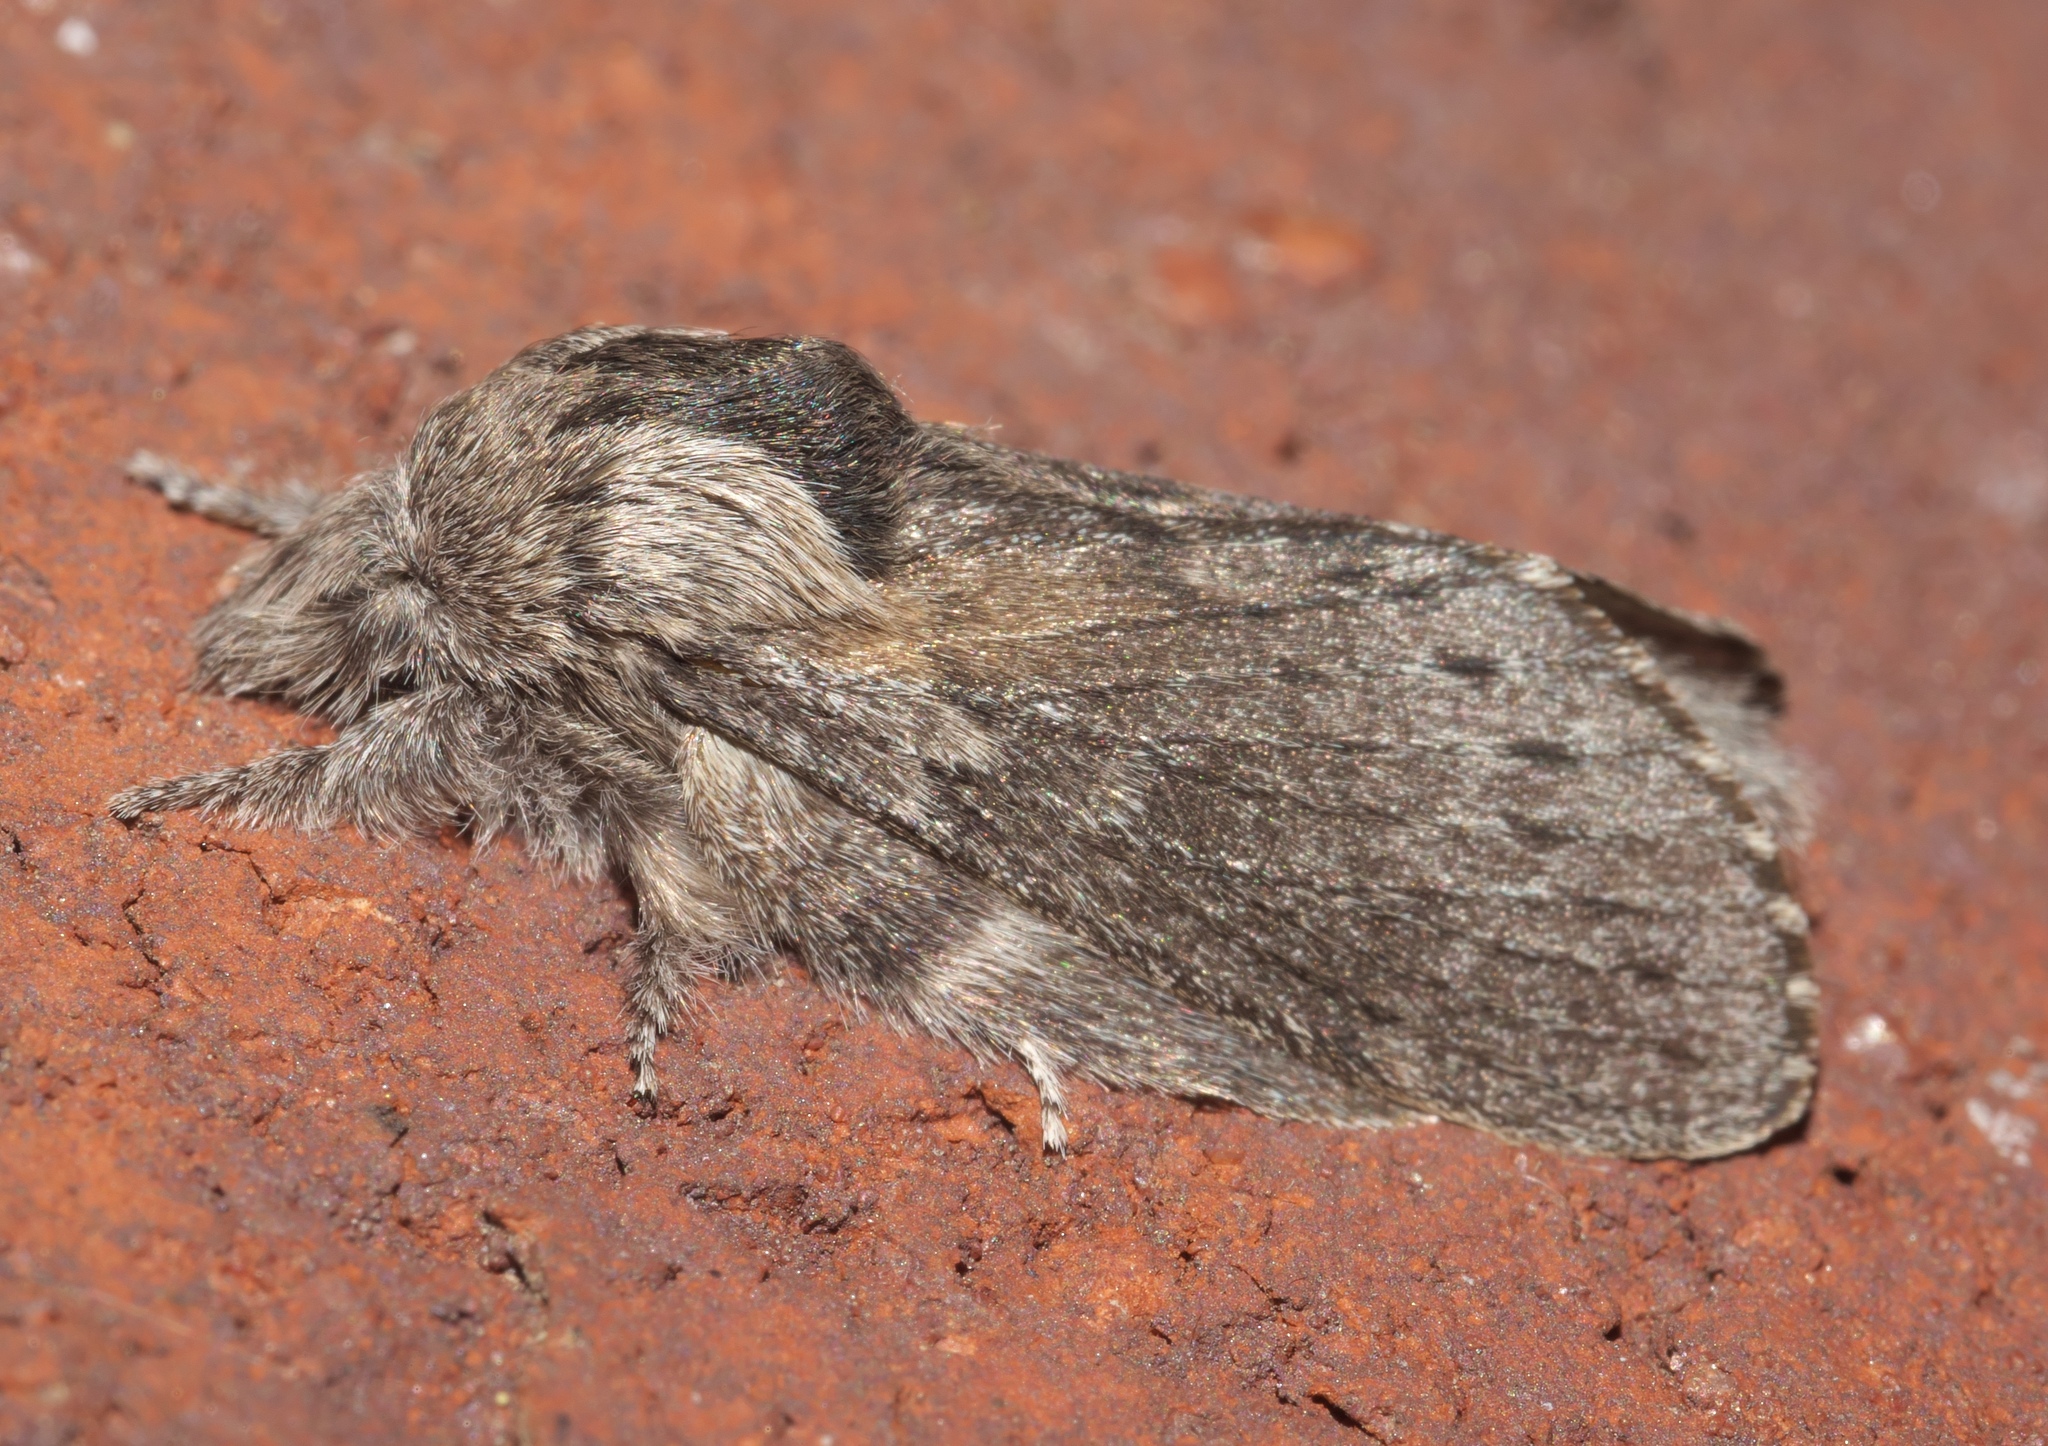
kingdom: Animalia
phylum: Arthropoda
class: Insecta
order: Lepidoptera
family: Lasiocampidae
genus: Heteropacha
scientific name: Heteropacha rileyana
